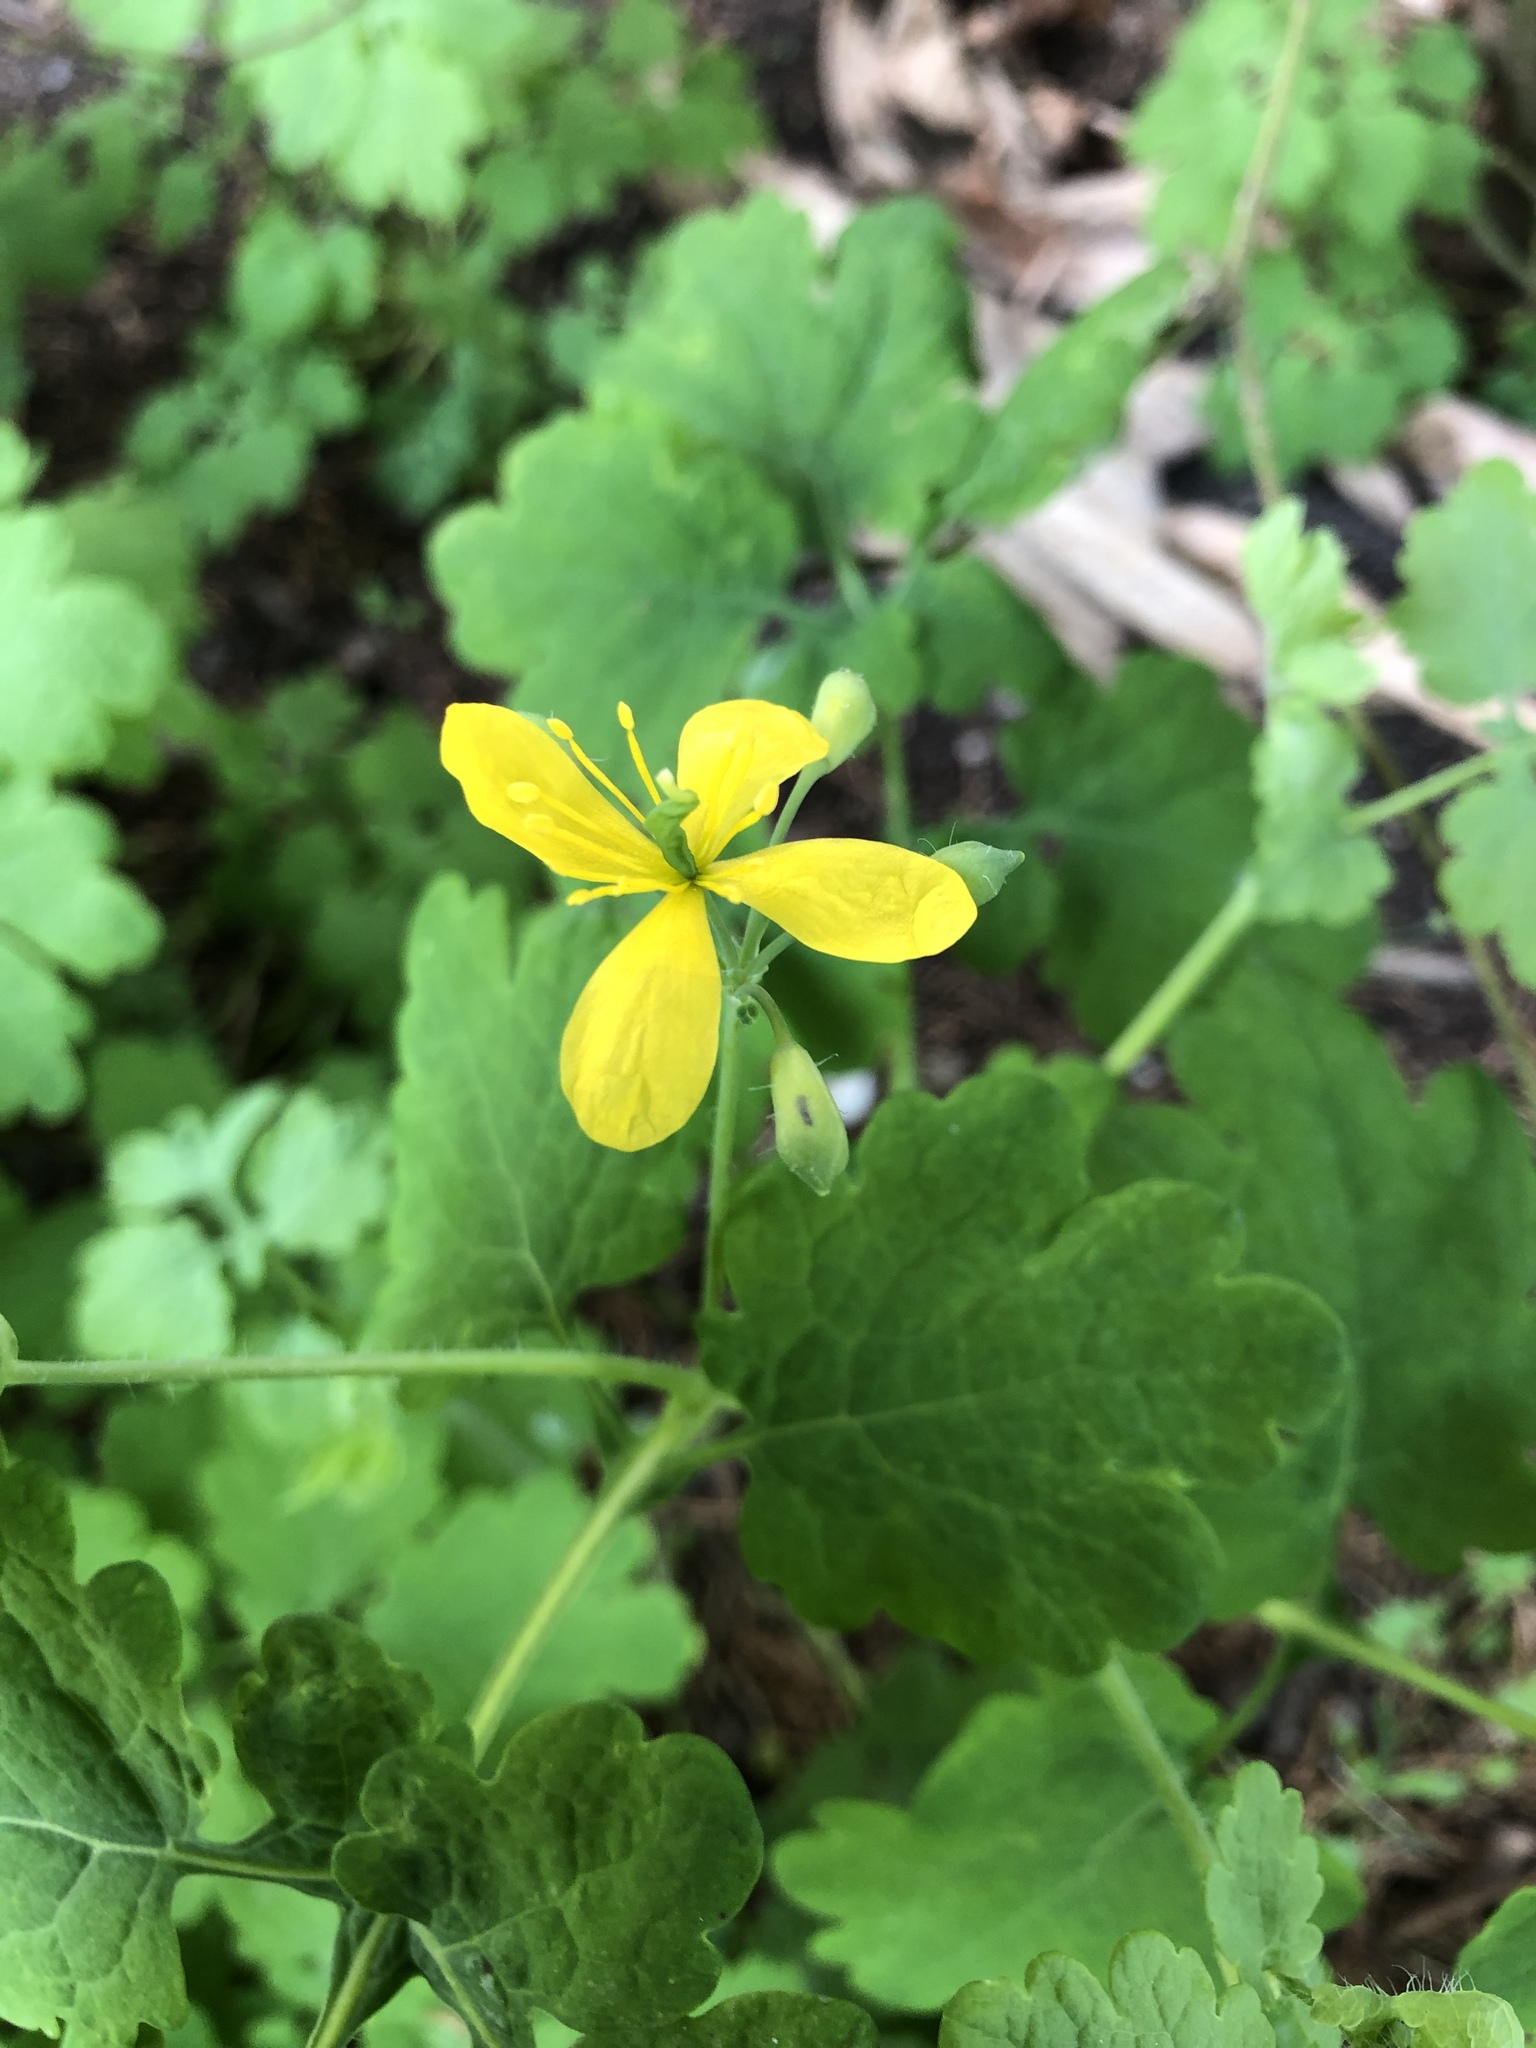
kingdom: Plantae
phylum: Tracheophyta
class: Magnoliopsida
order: Ranunculales
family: Papaveraceae
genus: Chelidonium
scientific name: Chelidonium majus
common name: Greater celandine
